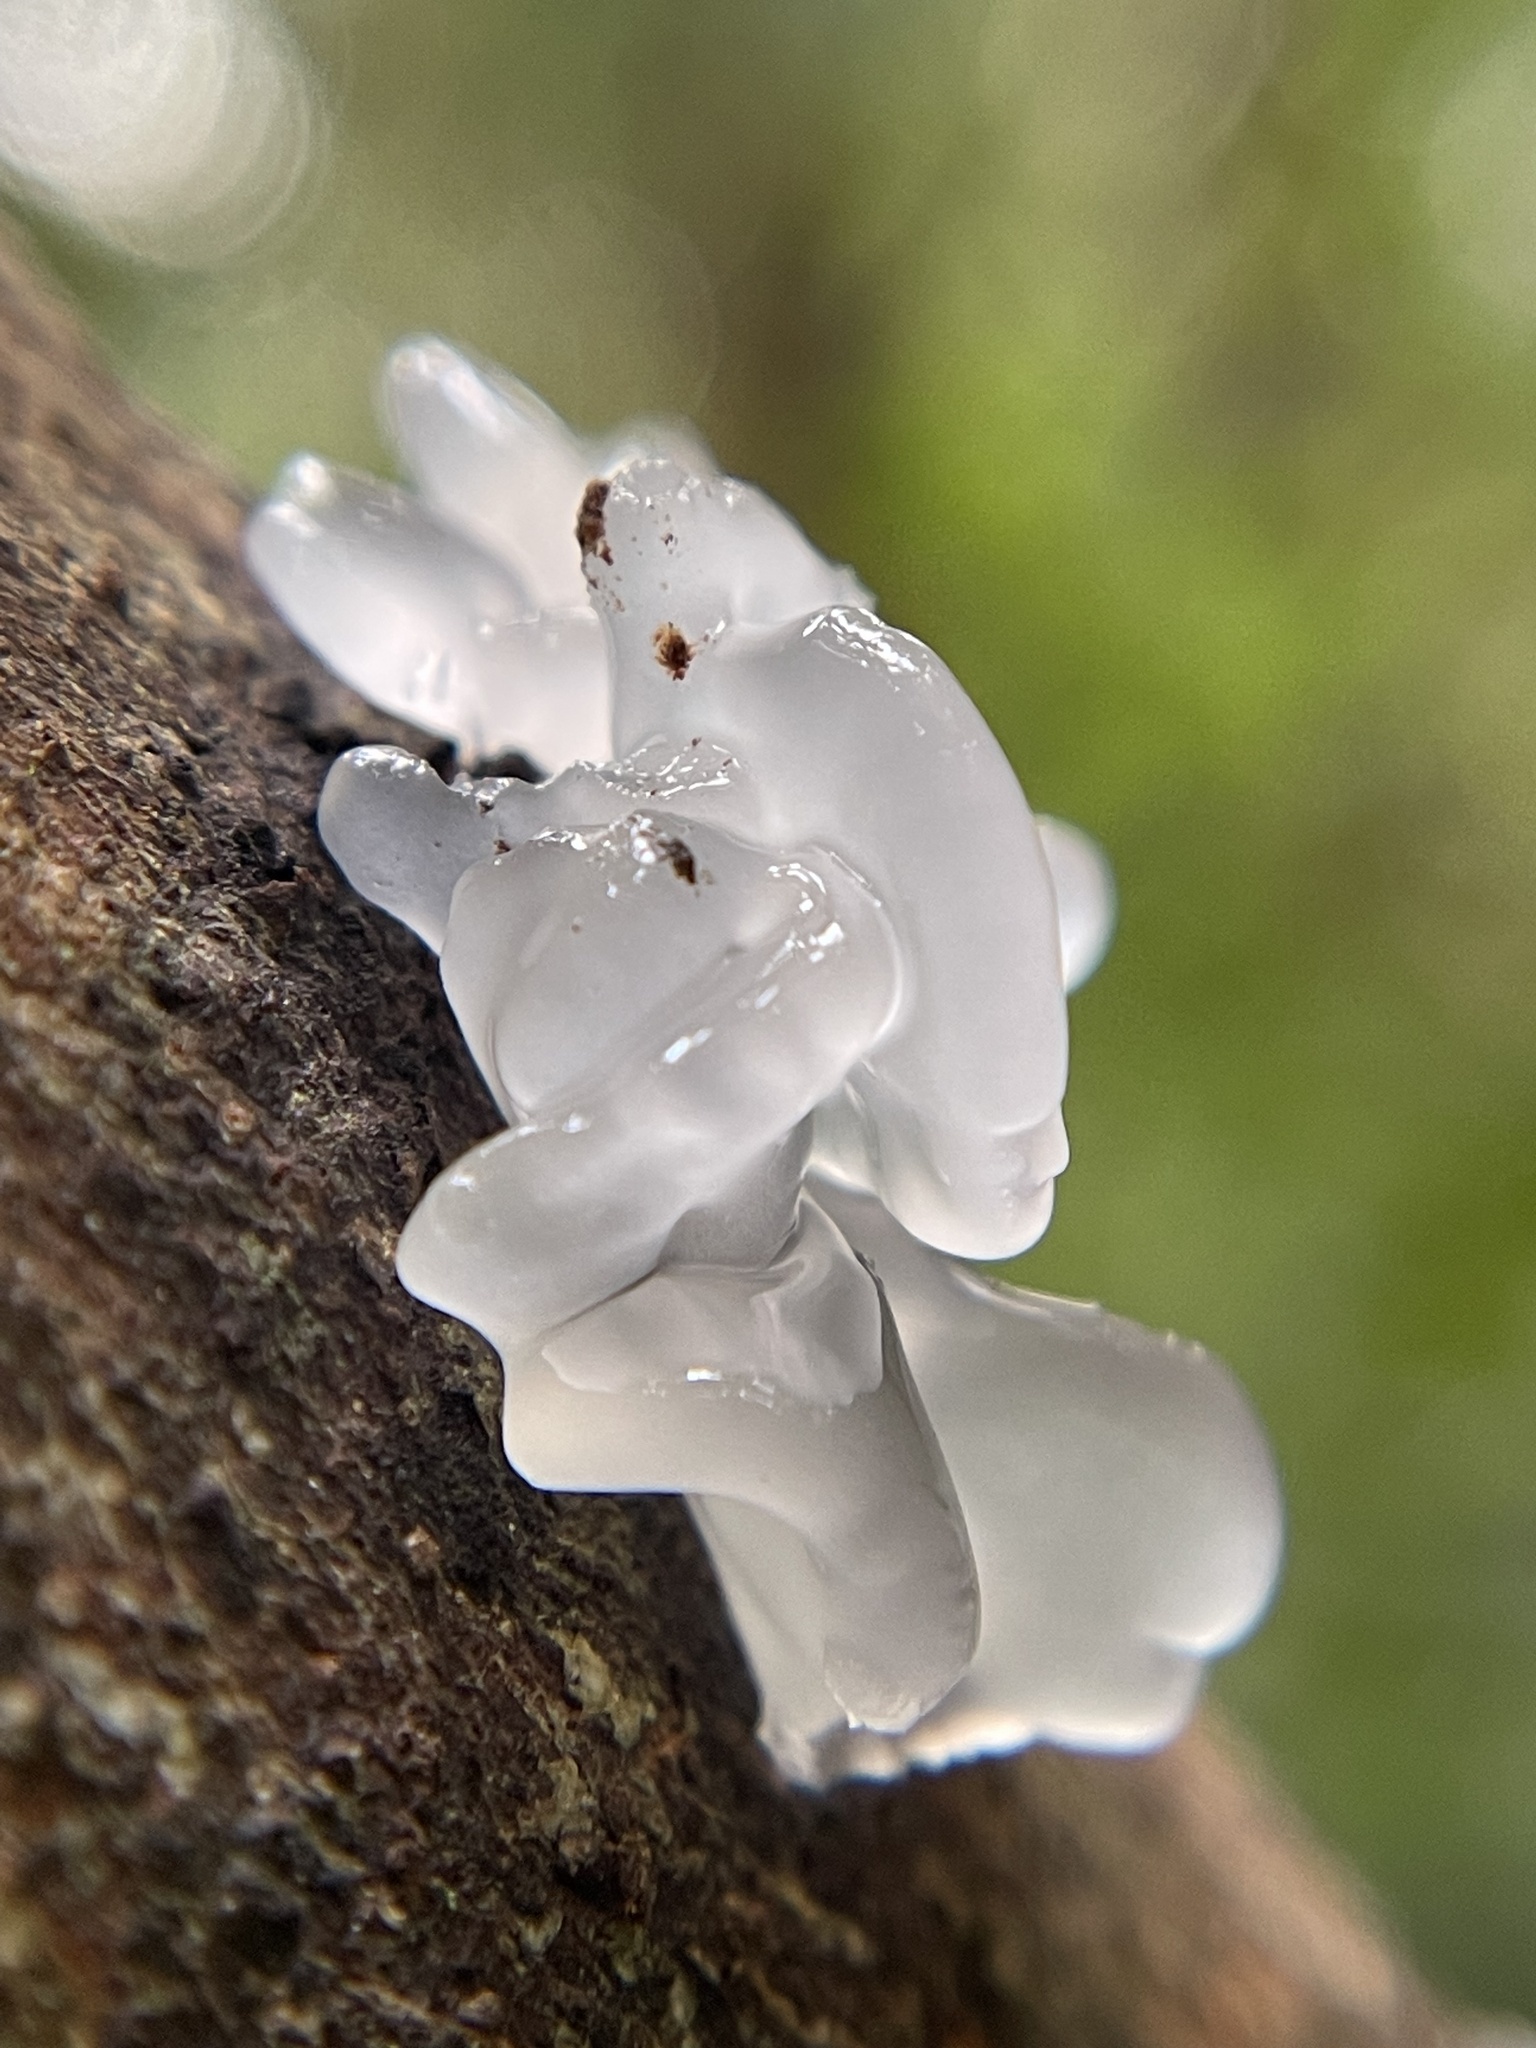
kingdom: Fungi
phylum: Basidiomycota
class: Tremellomycetes
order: Tremellales
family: Tremellaceae
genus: Tremella
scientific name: Tremella fuciformis
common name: Snow fungus
